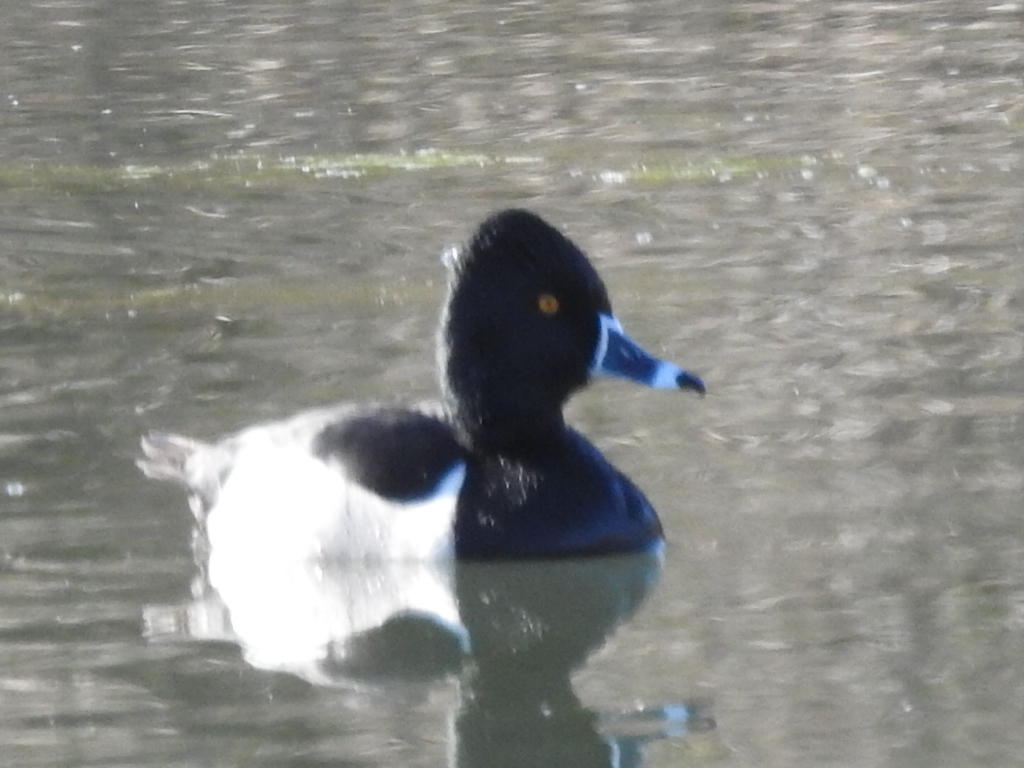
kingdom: Animalia
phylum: Chordata
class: Aves
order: Anseriformes
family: Anatidae
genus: Aythya
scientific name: Aythya collaris
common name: Ring-necked duck
